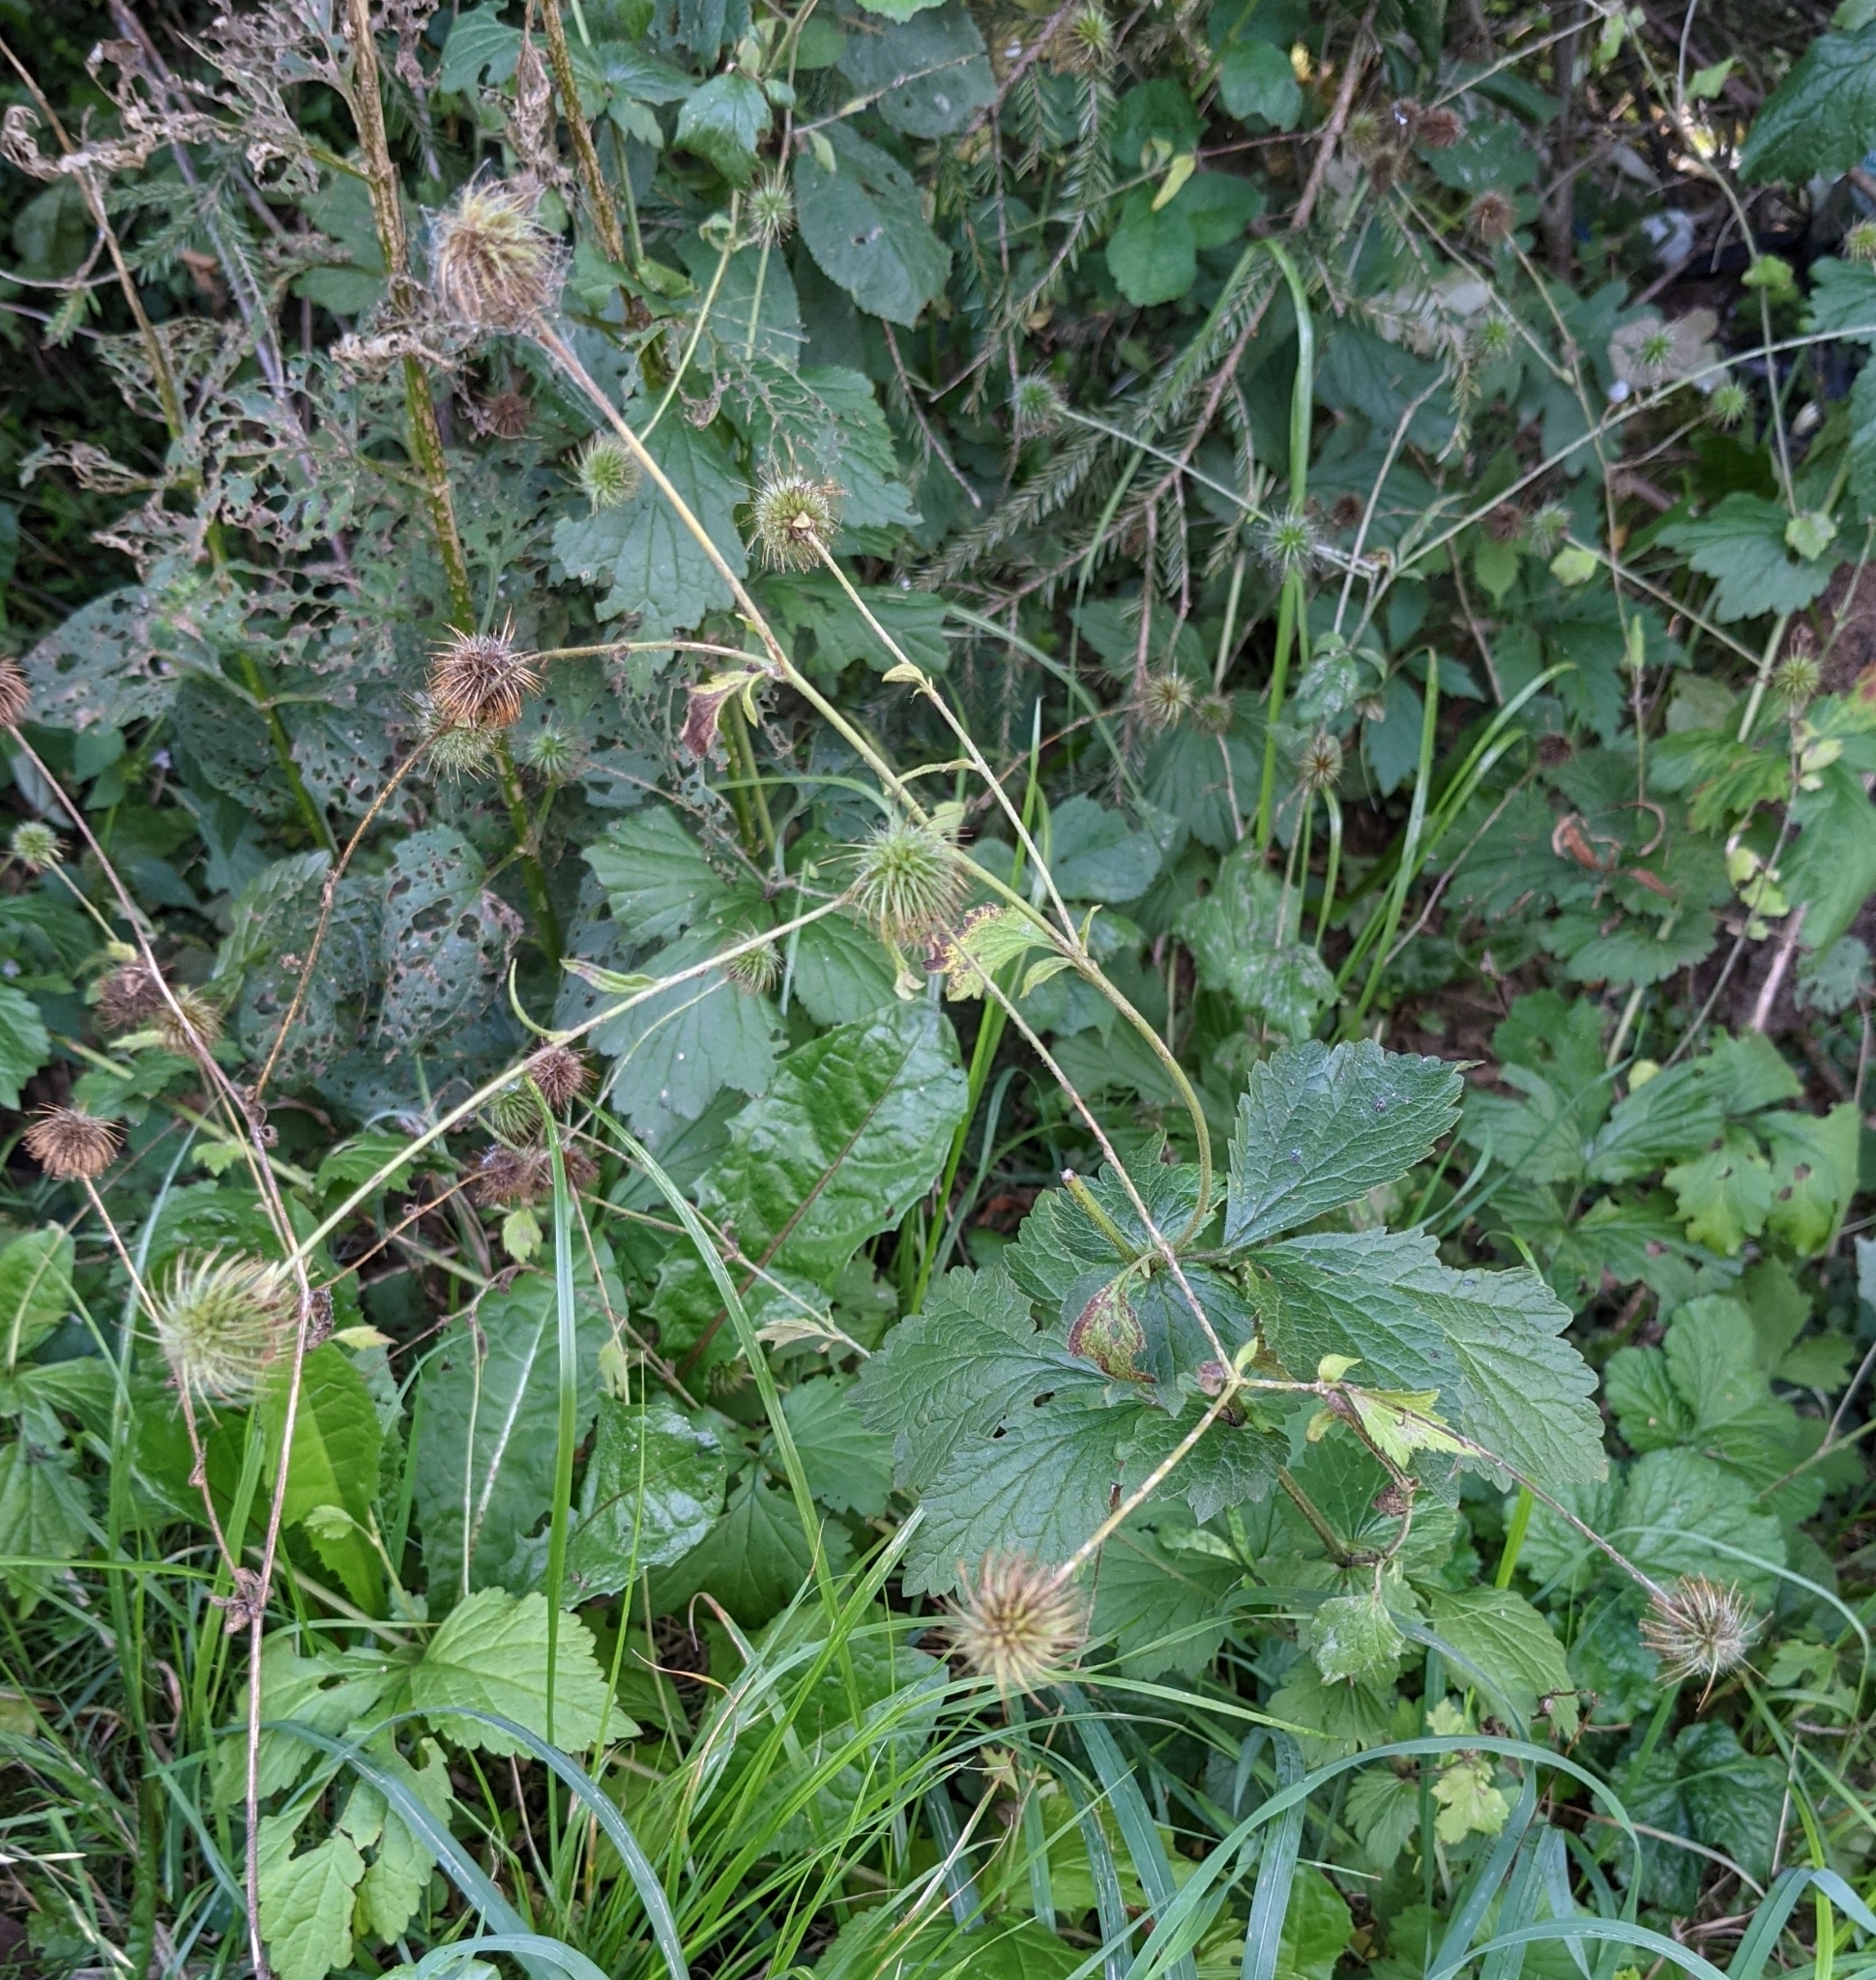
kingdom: Plantae
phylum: Tracheophyta
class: Magnoliopsida
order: Rosales
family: Rosaceae
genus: Geum
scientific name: Geum urbanum
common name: Wood avens
